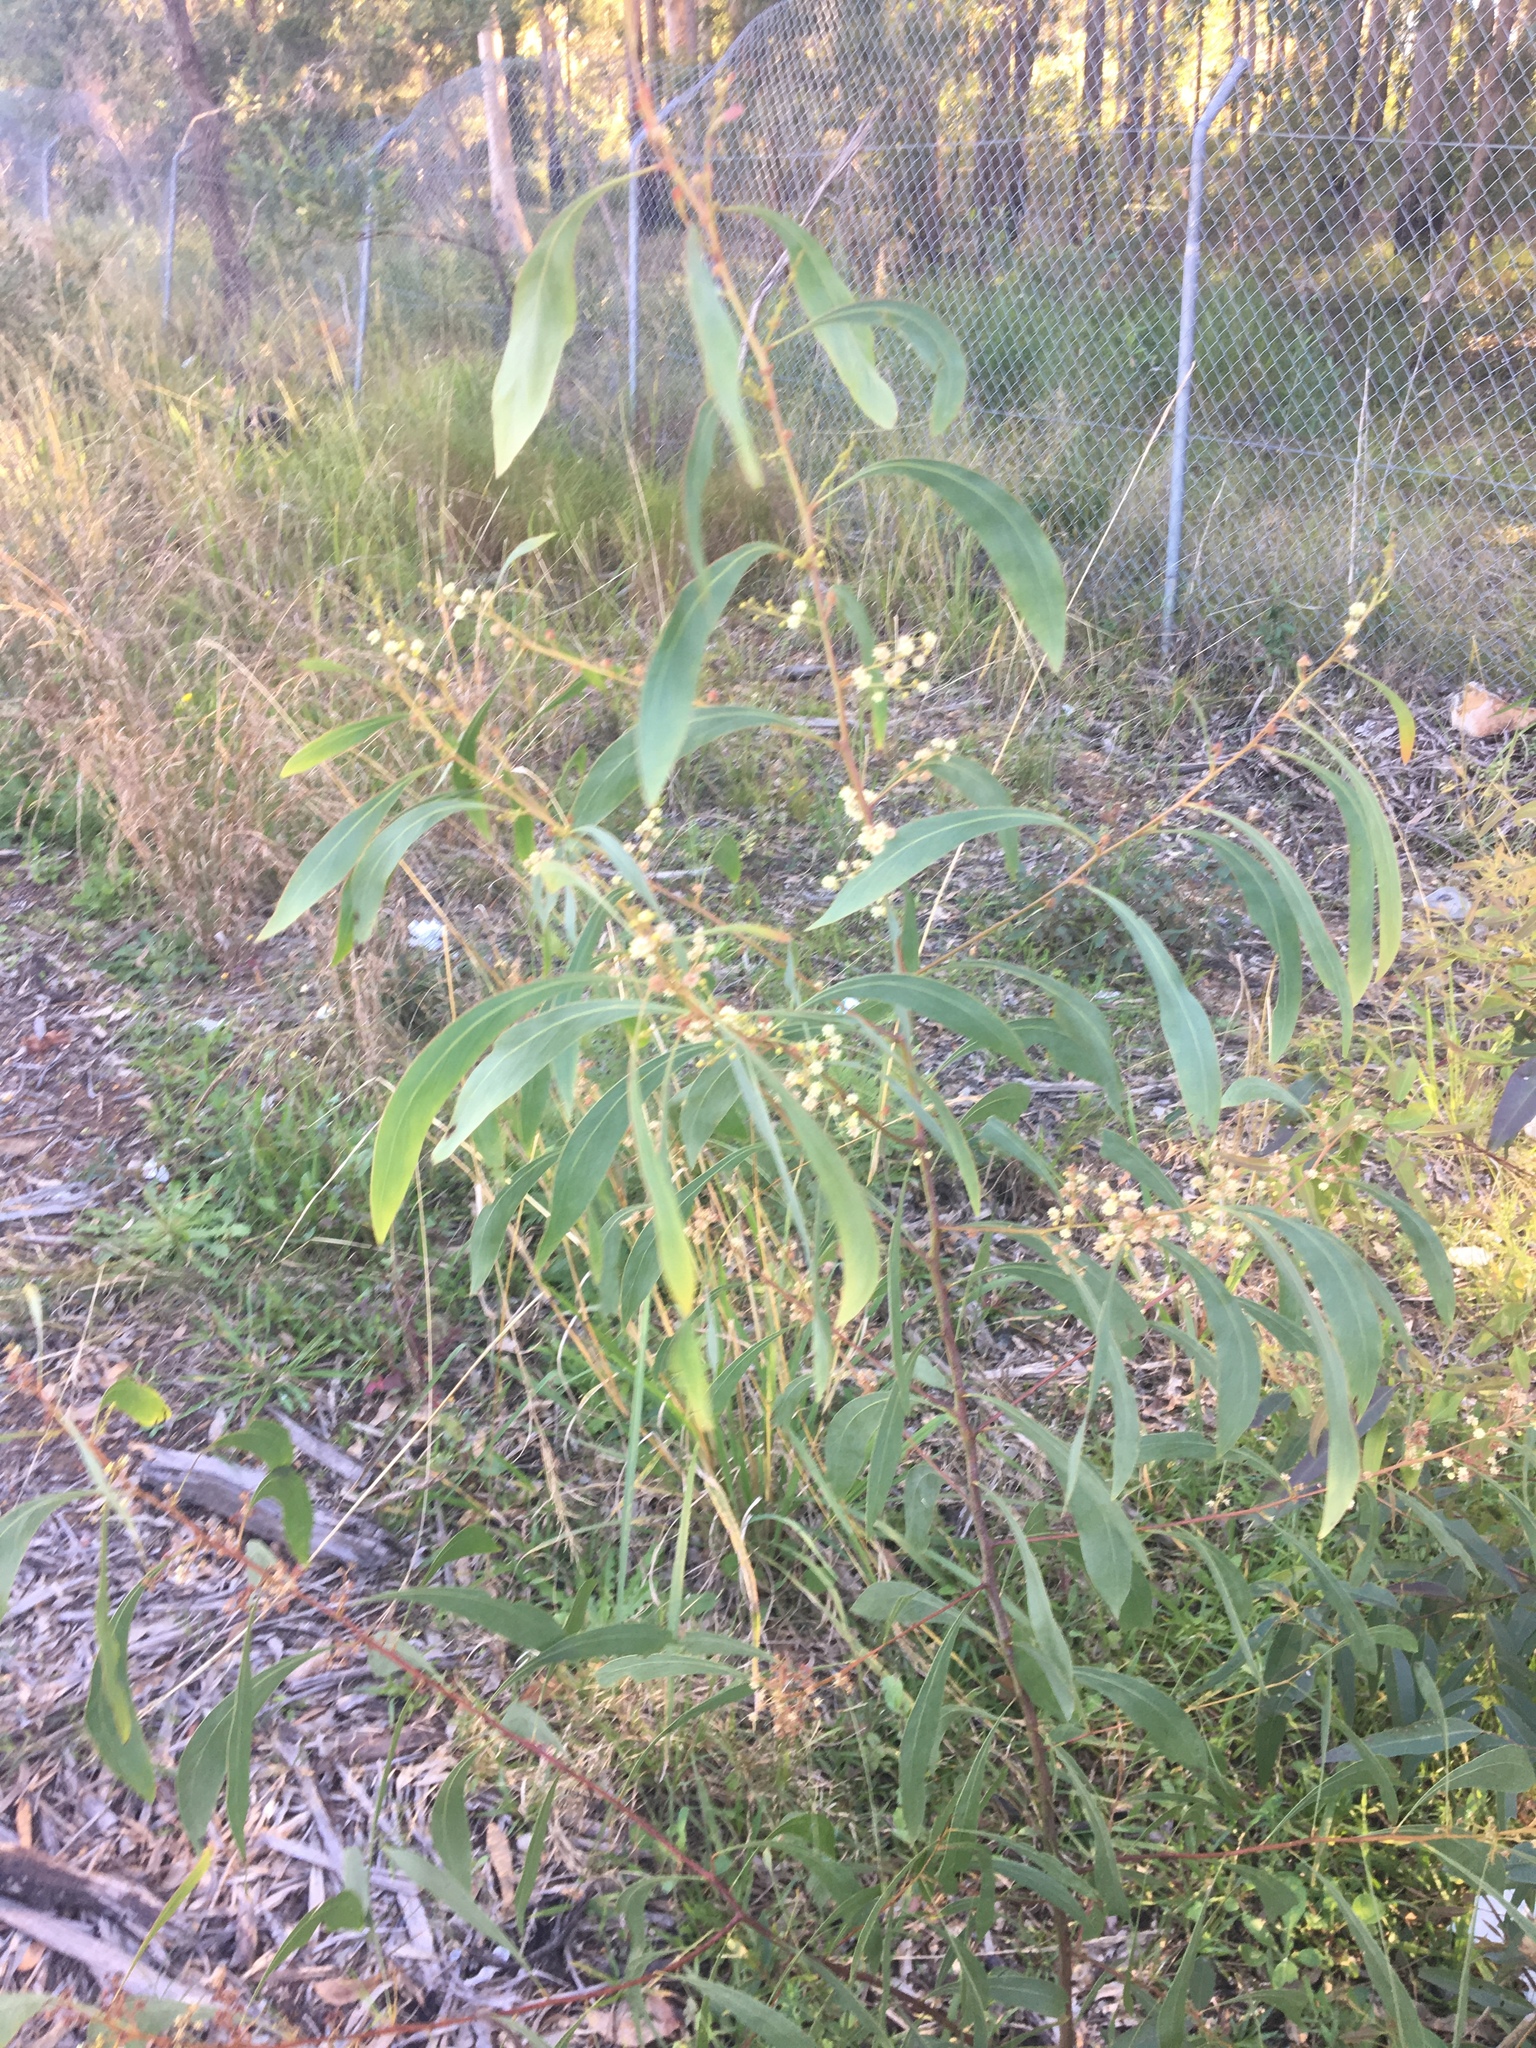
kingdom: Plantae
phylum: Tracheophyta
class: Magnoliopsida
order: Fabales
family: Fabaceae
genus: Acacia
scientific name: Acacia falcata
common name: Burra acacia
